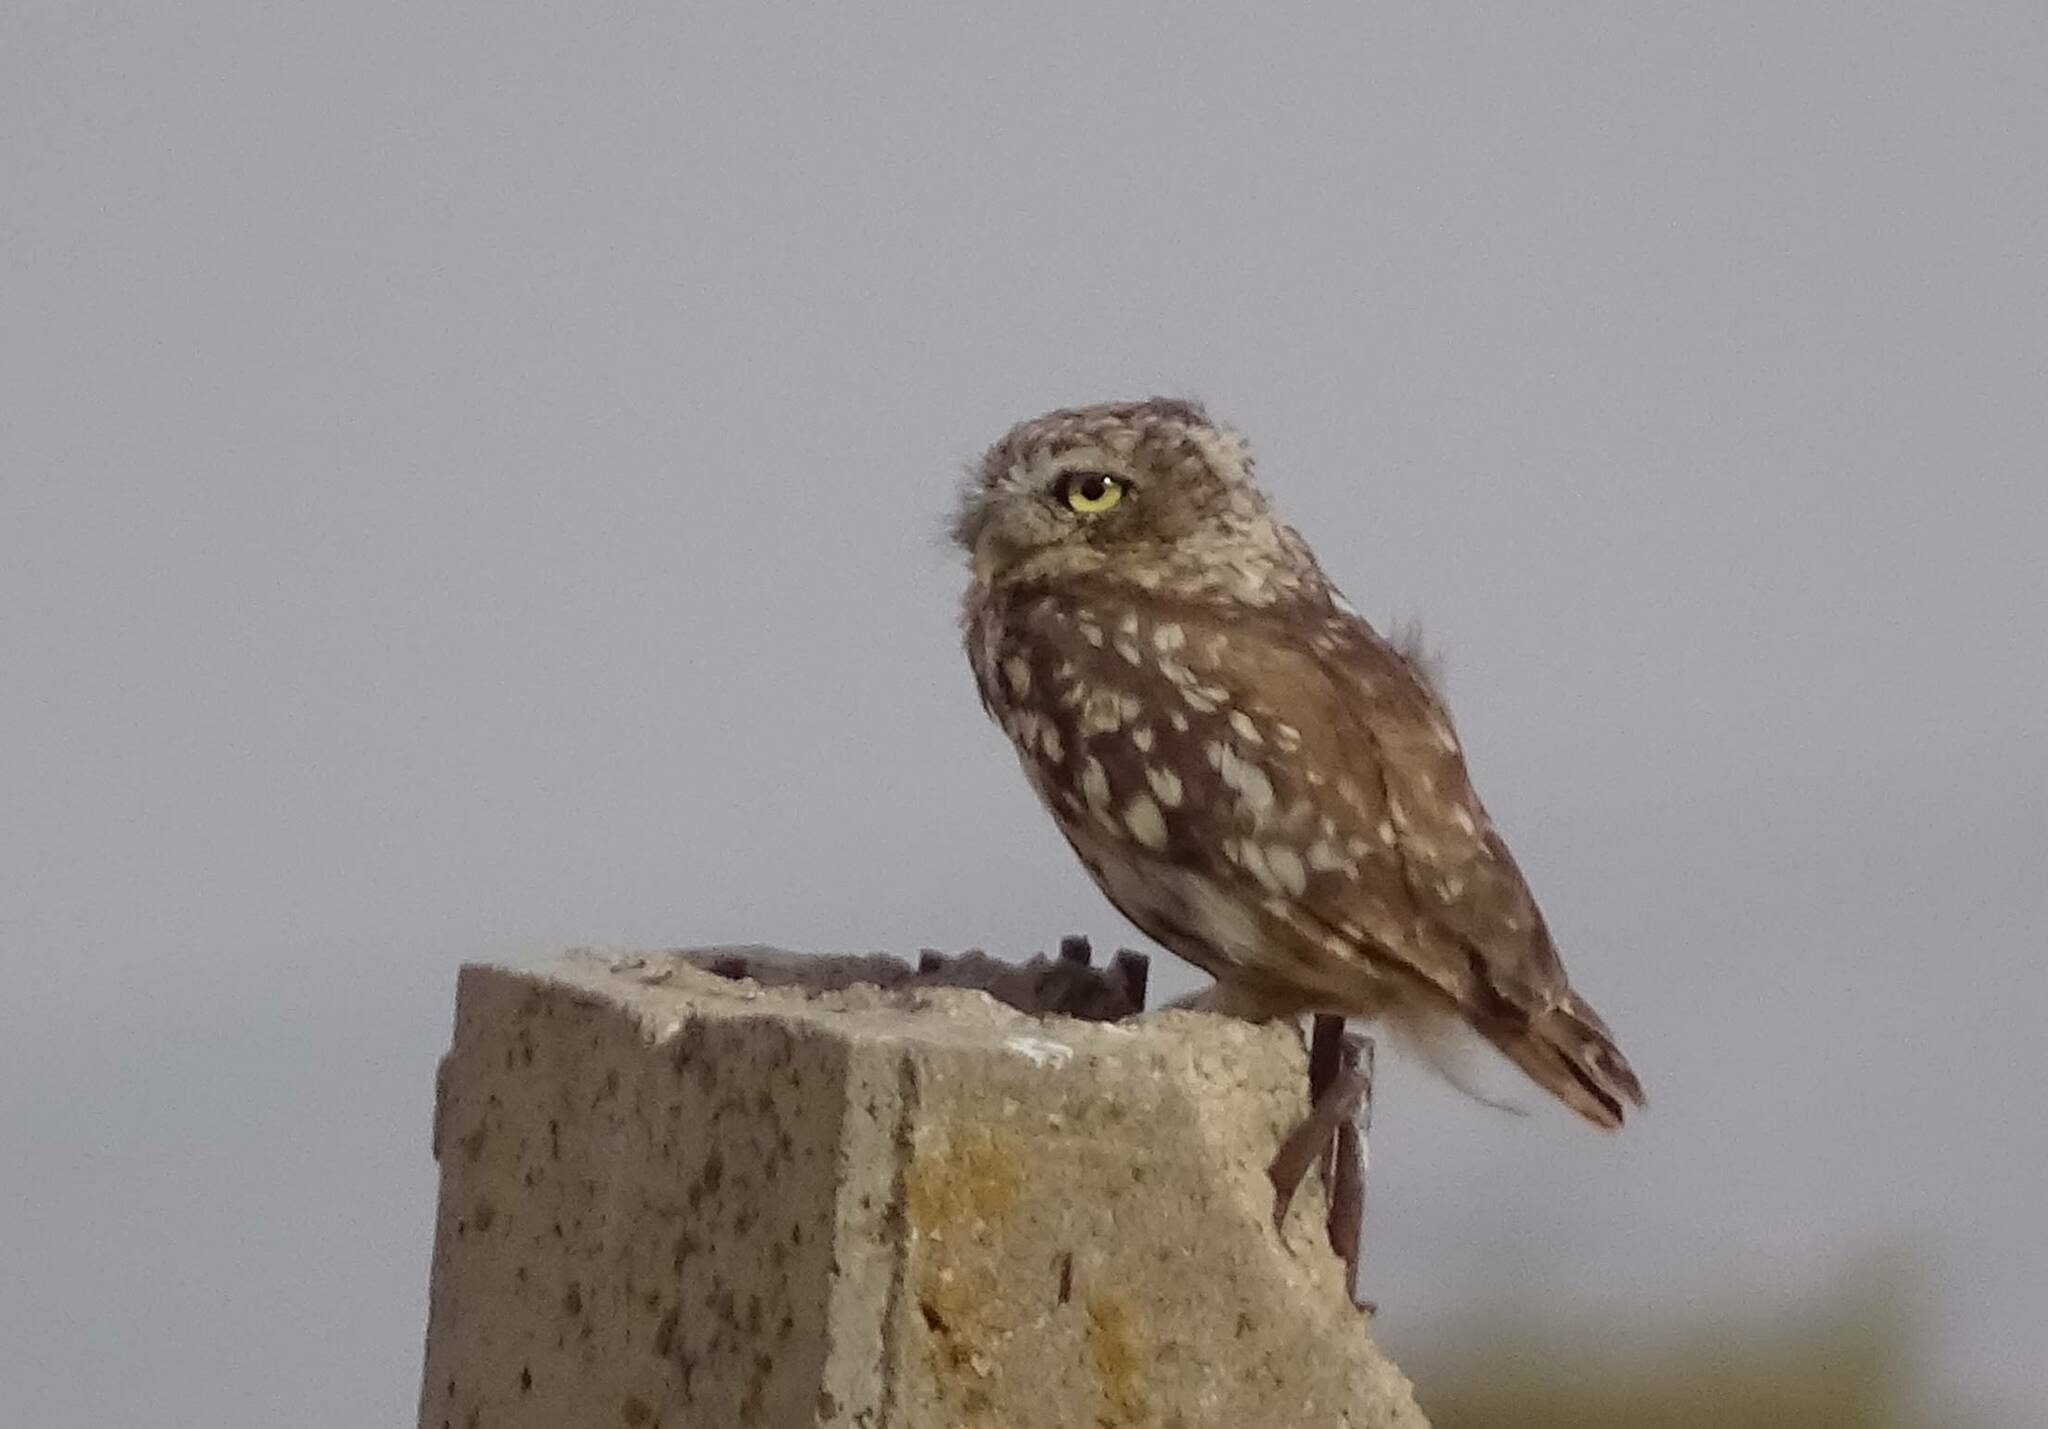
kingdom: Animalia
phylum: Chordata
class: Aves
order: Strigiformes
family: Strigidae
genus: Athene
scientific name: Athene noctua
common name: Little owl
